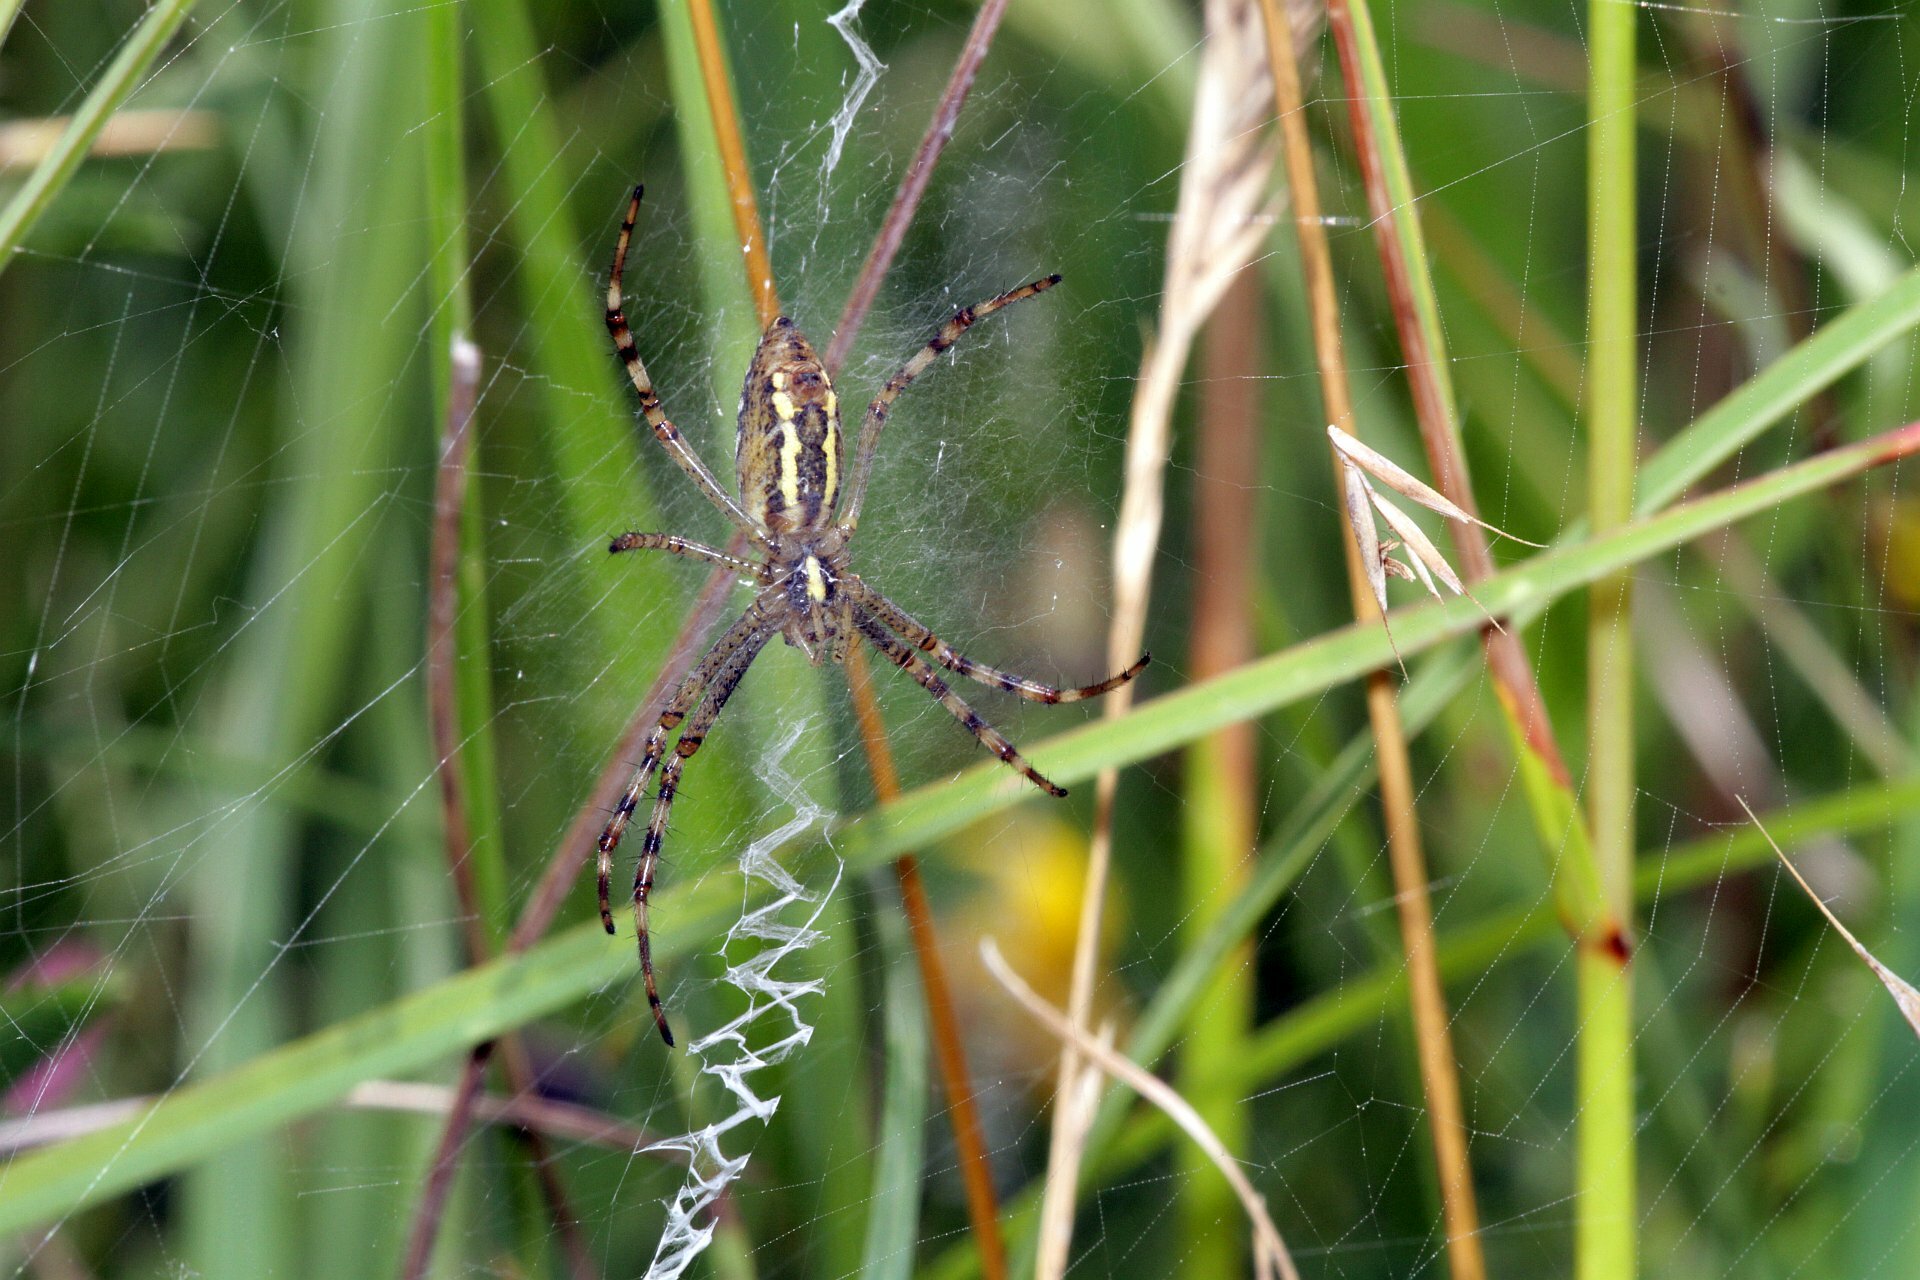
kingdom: Animalia
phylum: Arthropoda
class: Arachnida
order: Araneae
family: Araneidae
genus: Argiope
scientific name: Argiope bruennichi
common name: Wasp spider
